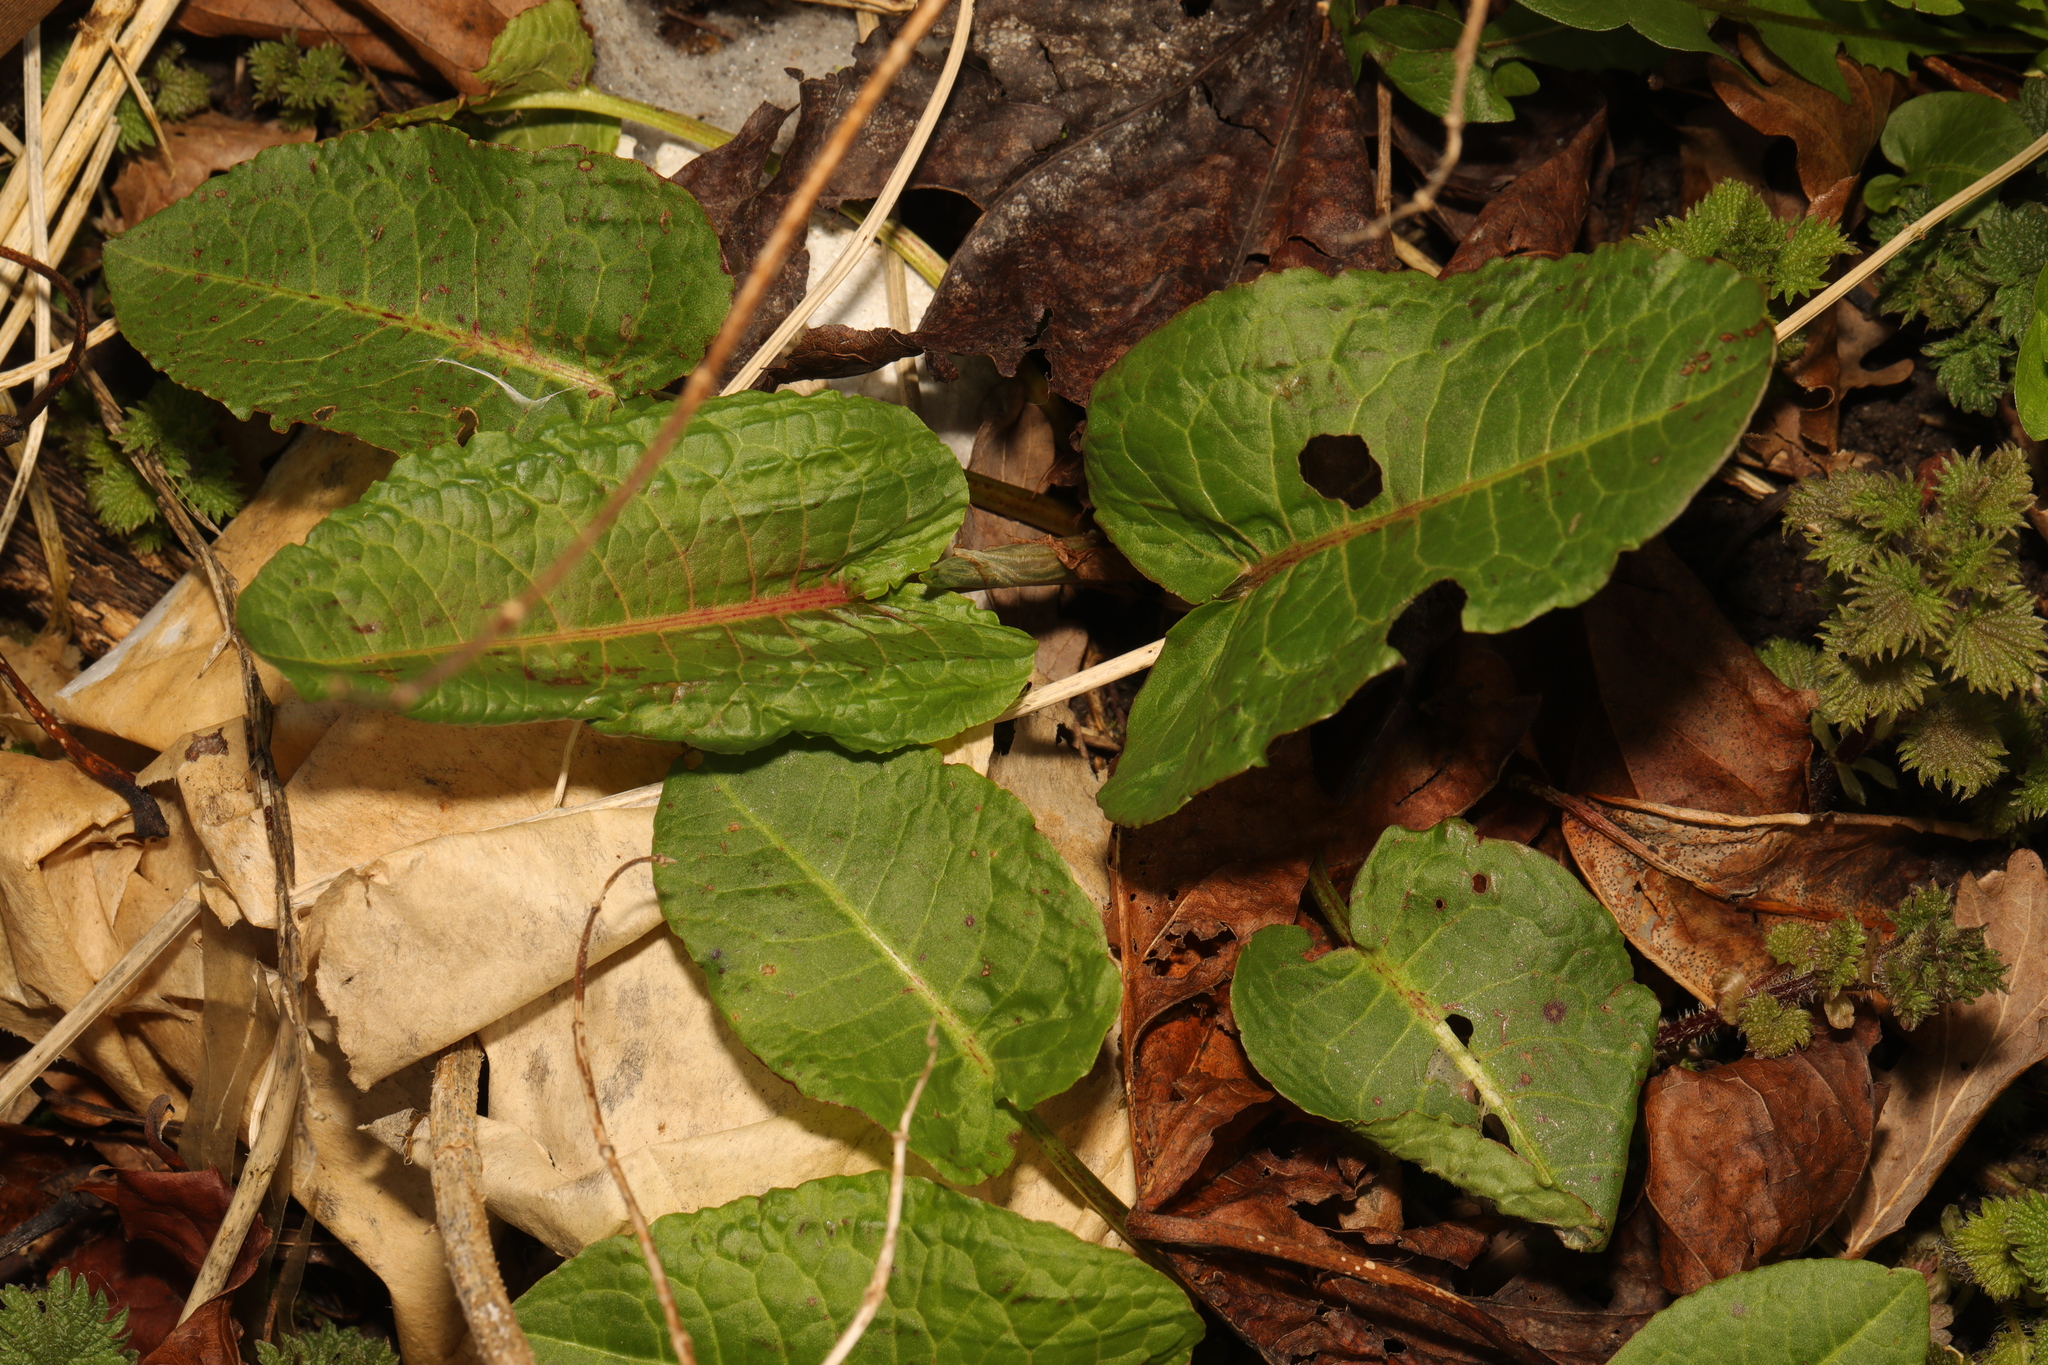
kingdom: Plantae
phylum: Tracheophyta
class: Magnoliopsida
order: Caryophyllales
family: Polygonaceae
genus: Rumex
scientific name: Rumex obtusifolius
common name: Bitter dock
